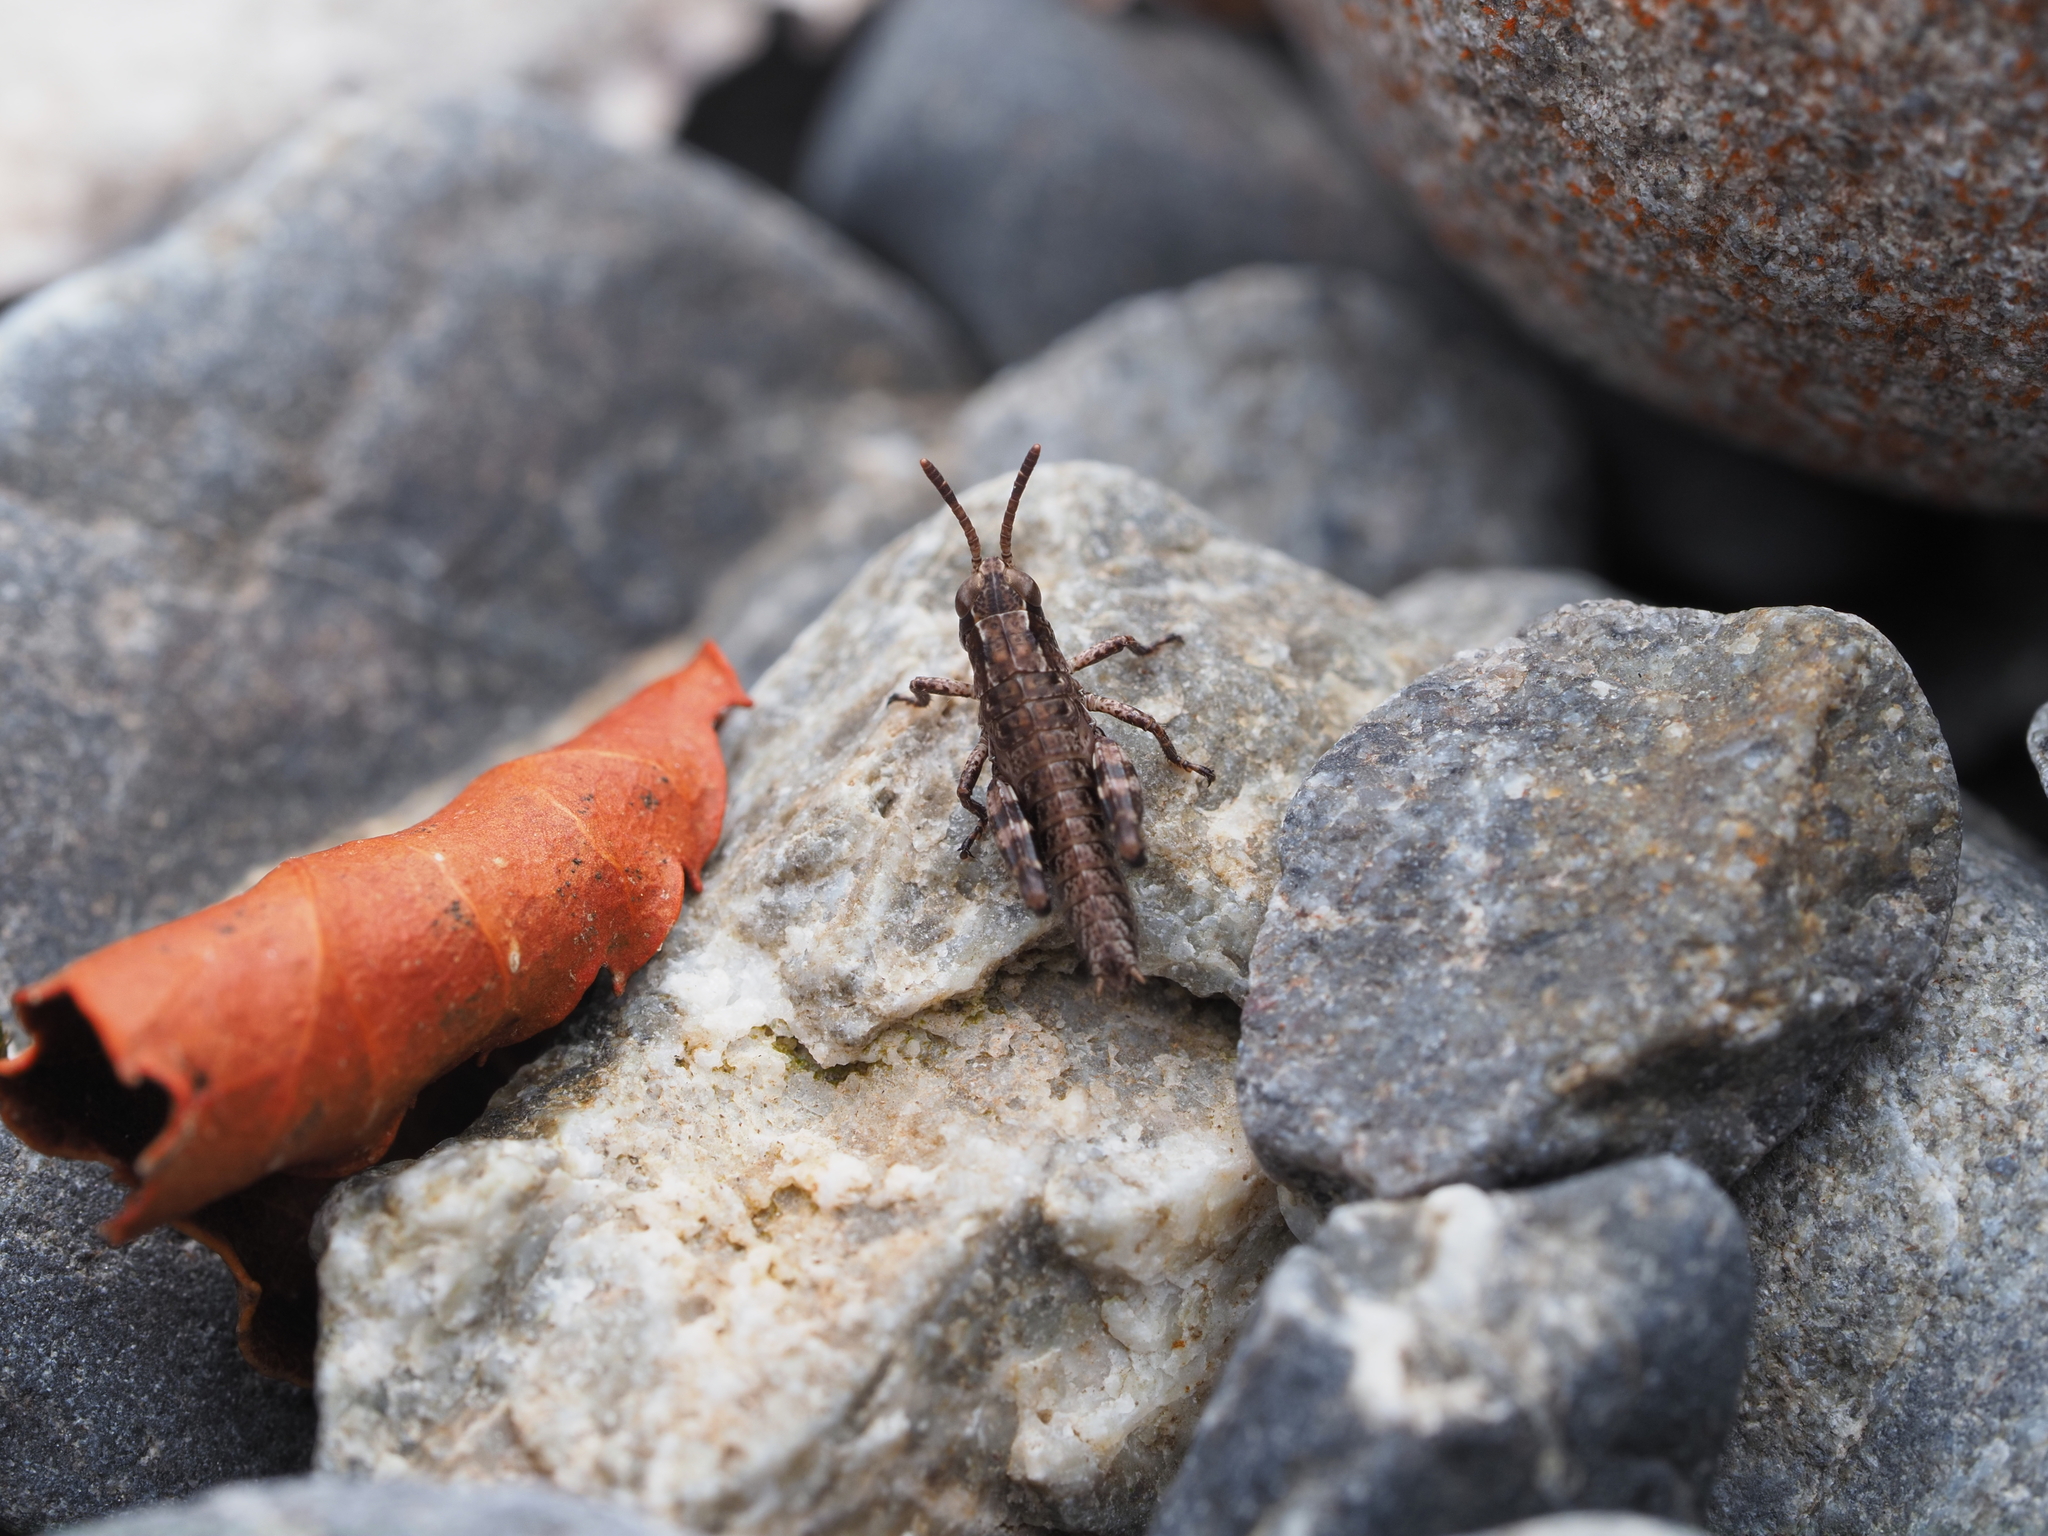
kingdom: Animalia
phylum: Arthropoda
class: Insecta
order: Orthoptera
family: Acrididae
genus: Phaulacridium
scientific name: Phaulacridium marginale
